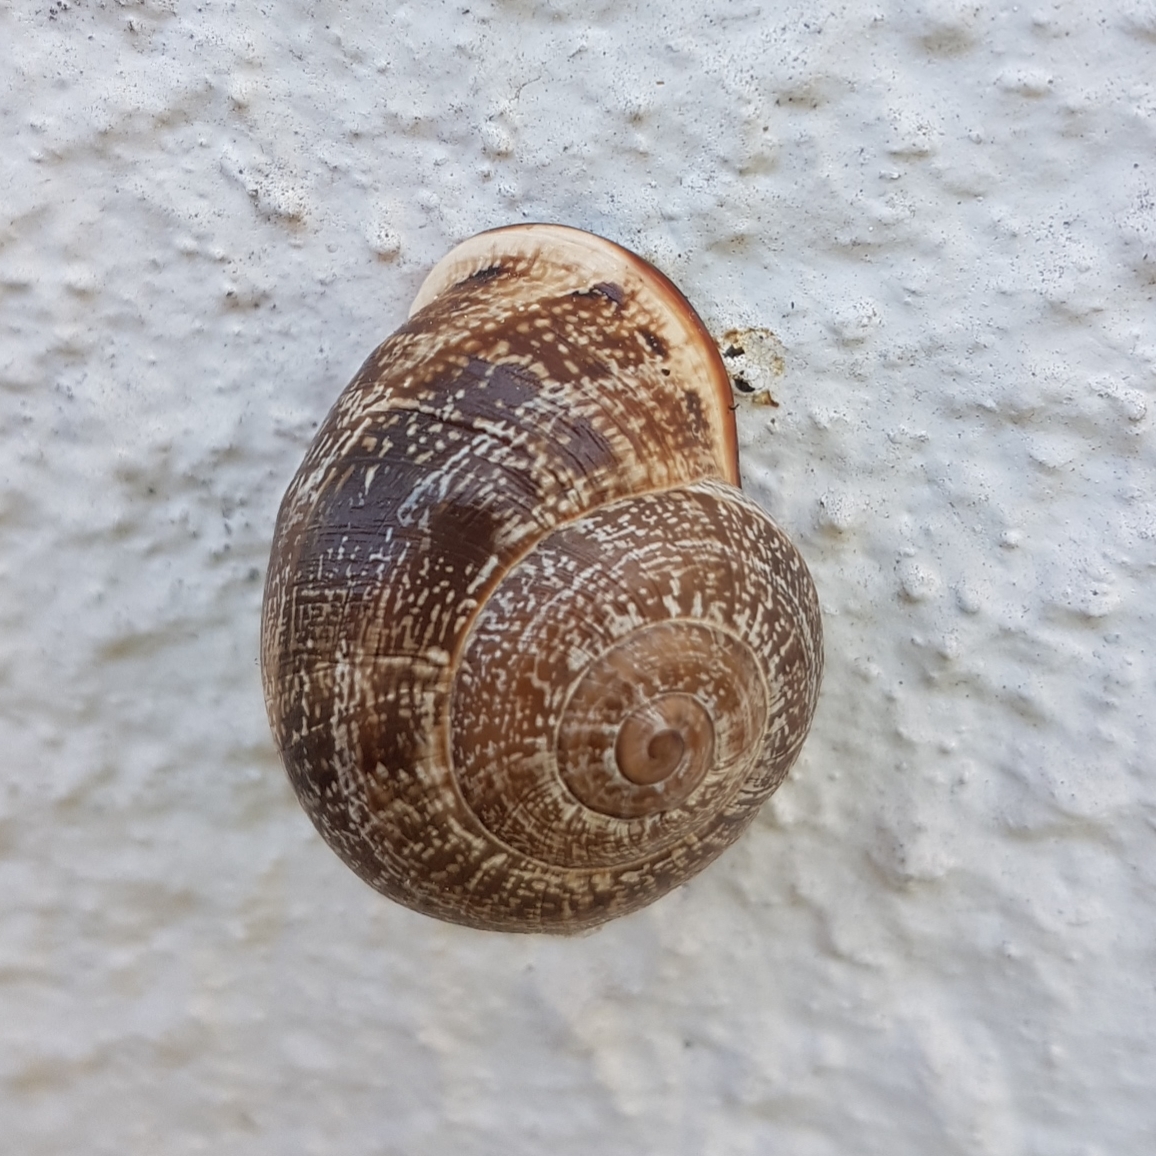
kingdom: Animalia
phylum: Mollusca
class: Gastropoda
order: Stylommatophora
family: Helicidae
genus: Otala
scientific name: Otala lactea
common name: Milk snail
